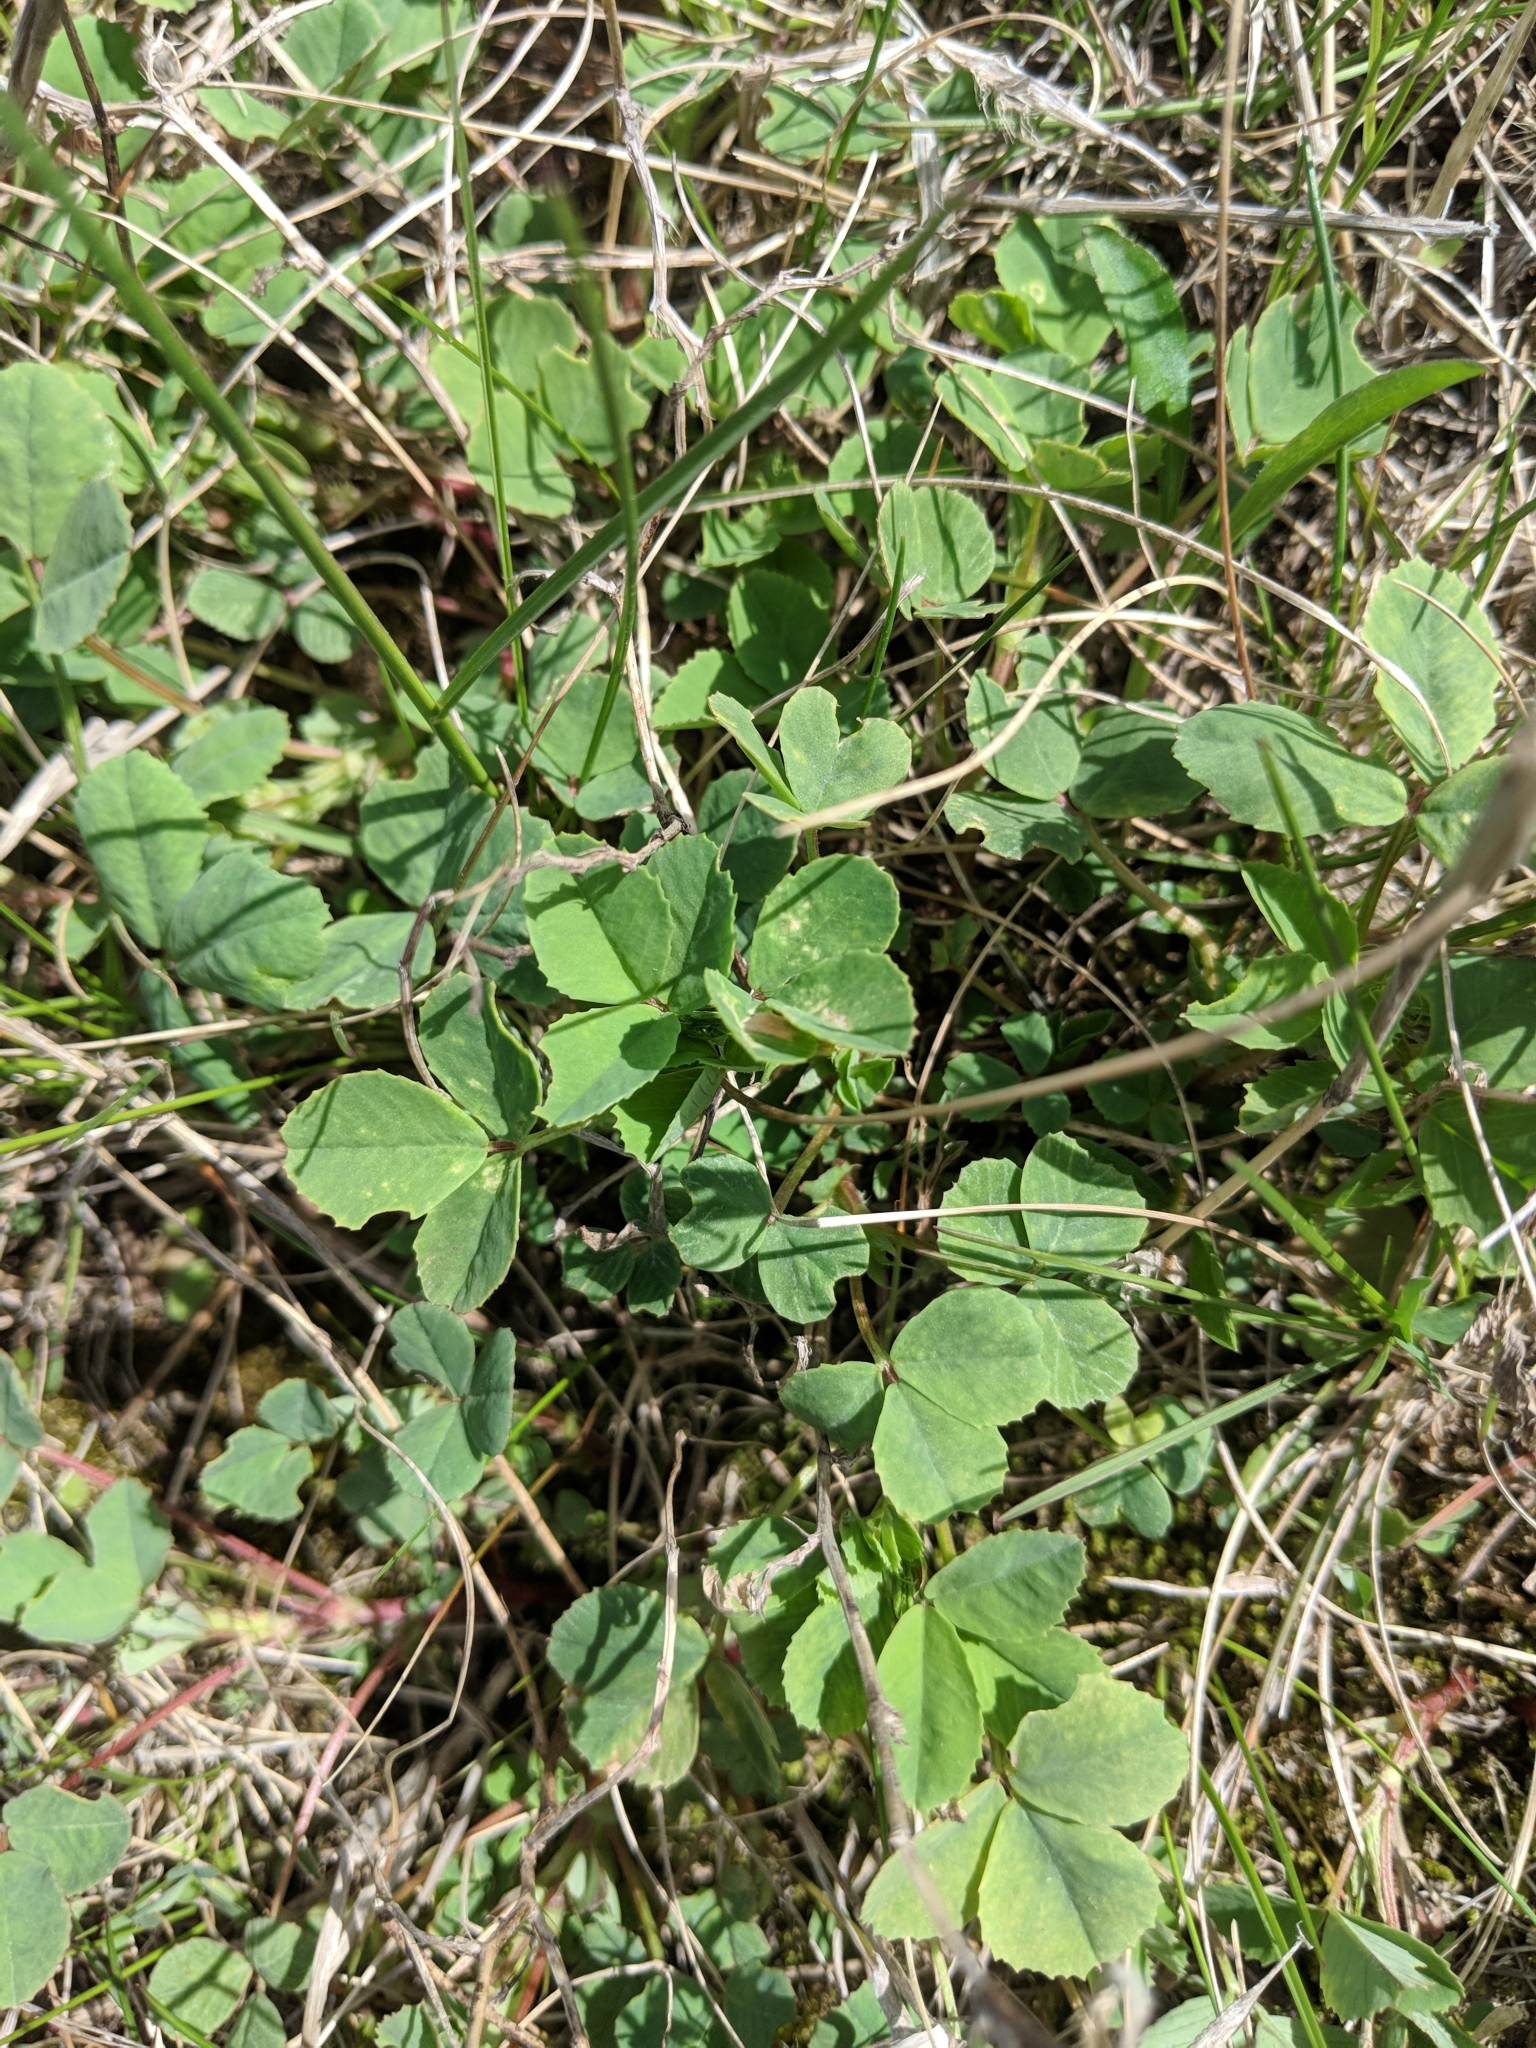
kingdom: Plantae
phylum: Tracheophyta
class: Magnoliopsida
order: Fabales
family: Fabaceae
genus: Melilotus
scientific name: Melilotus
